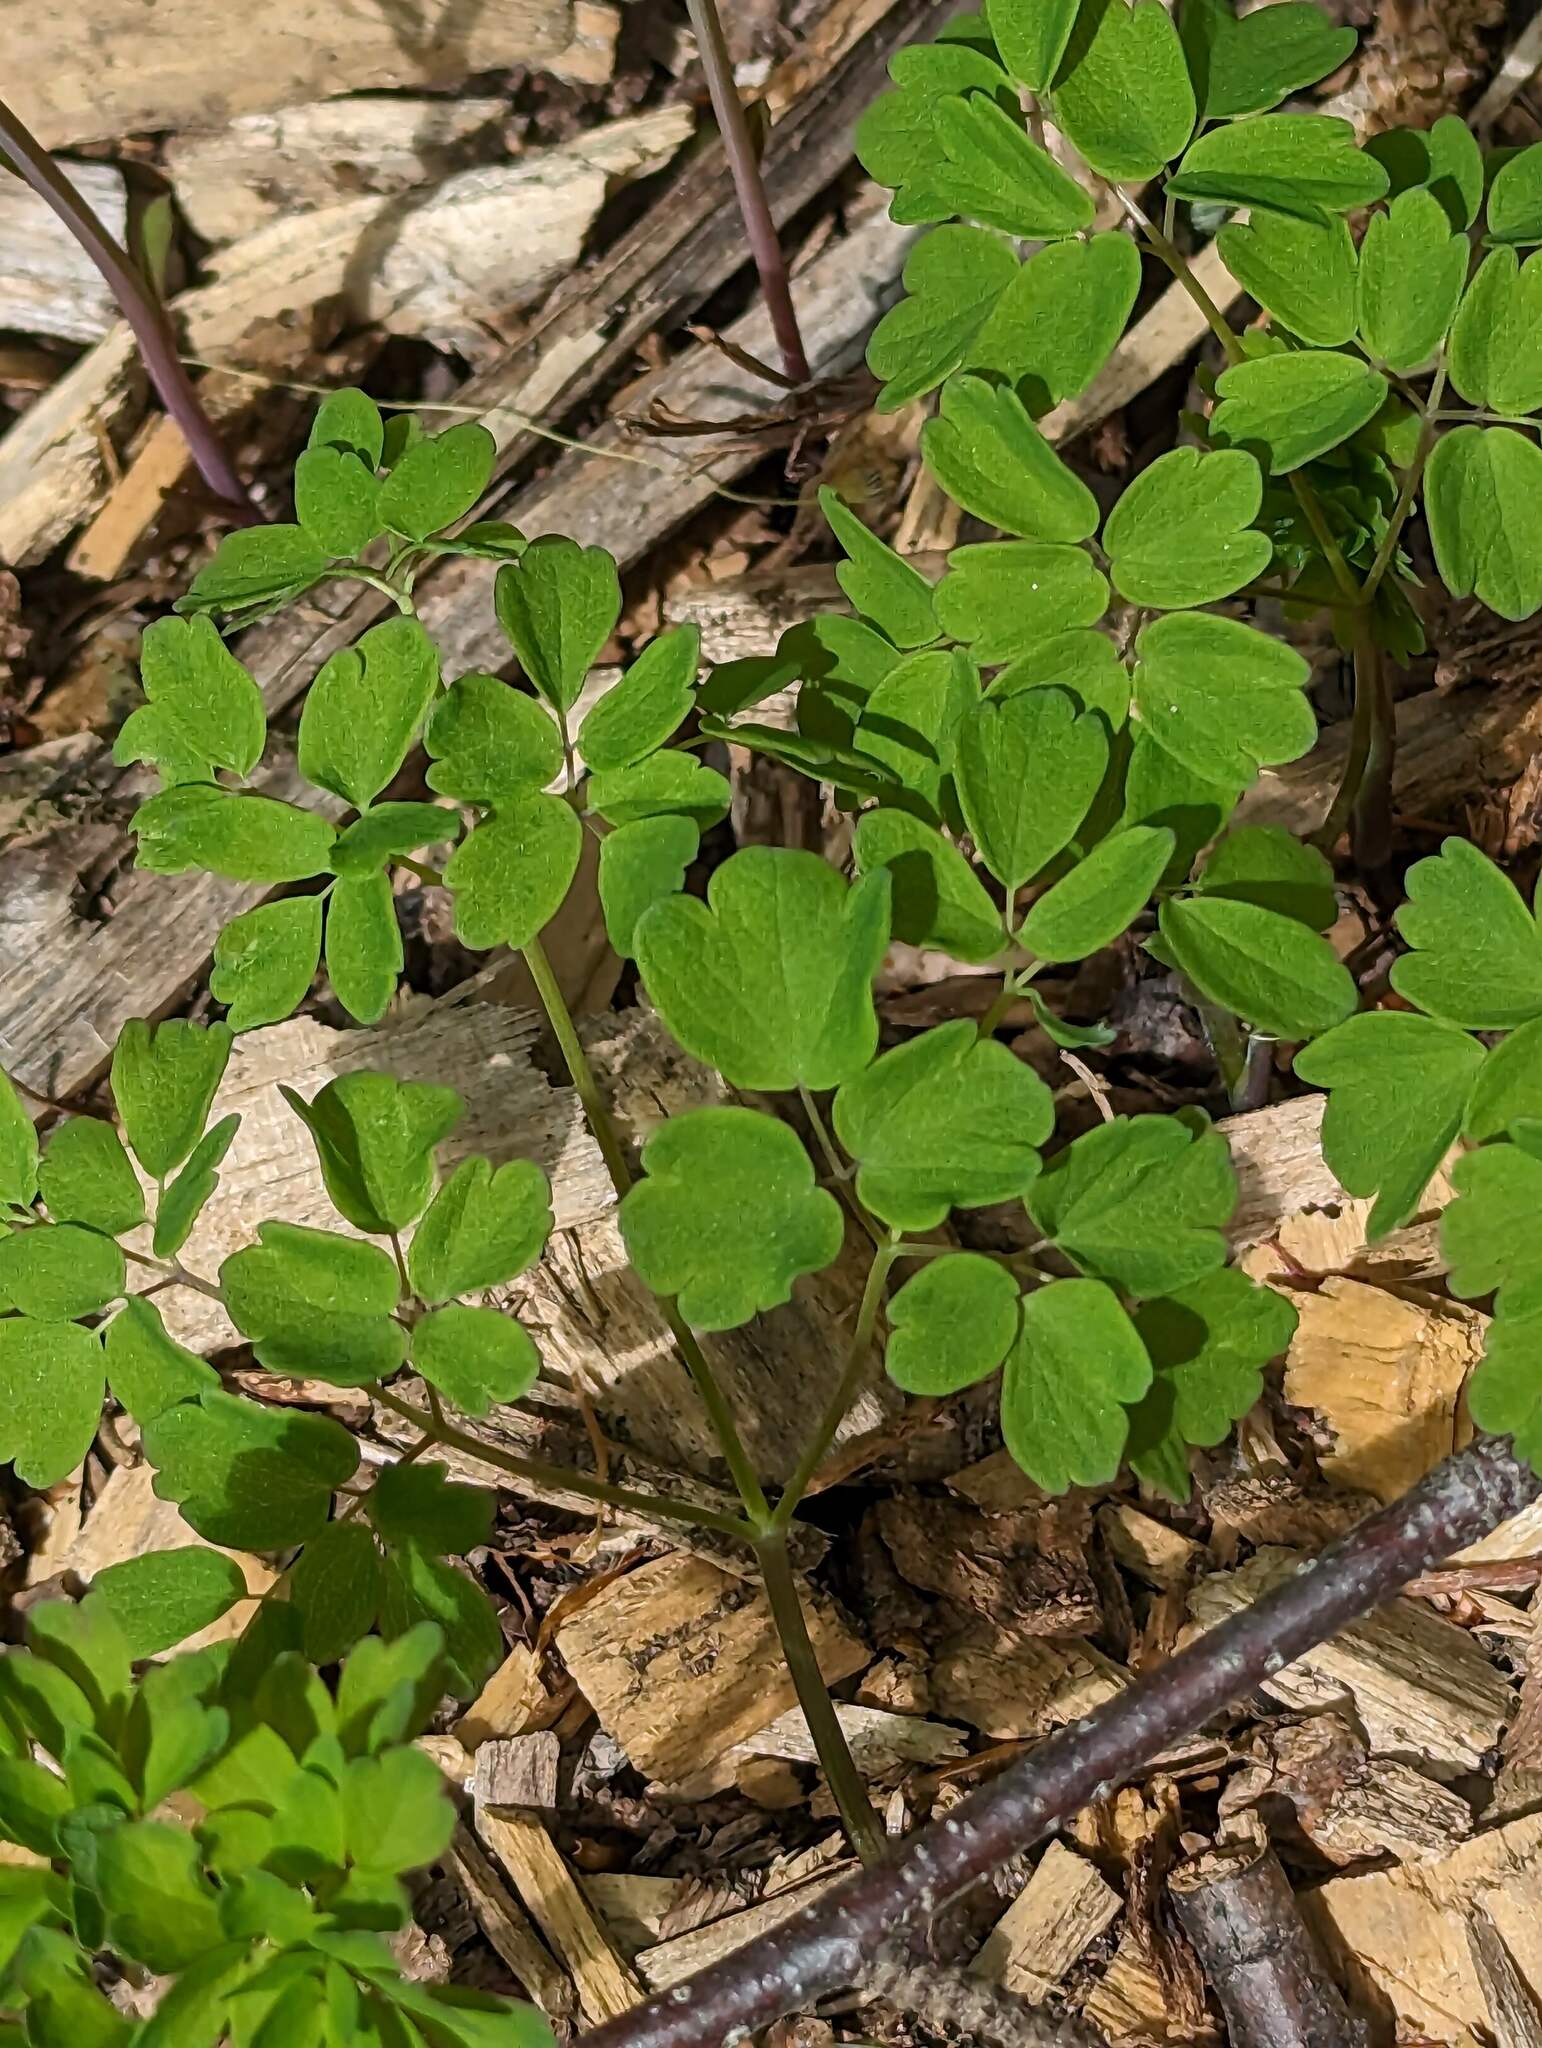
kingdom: Plantae
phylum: Tracheophyta
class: Magnoliopsida
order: Ranunculales
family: Ranunculaceae
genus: Thalictrum
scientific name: Thalictrum pubescens
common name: King-of-the-meadow
